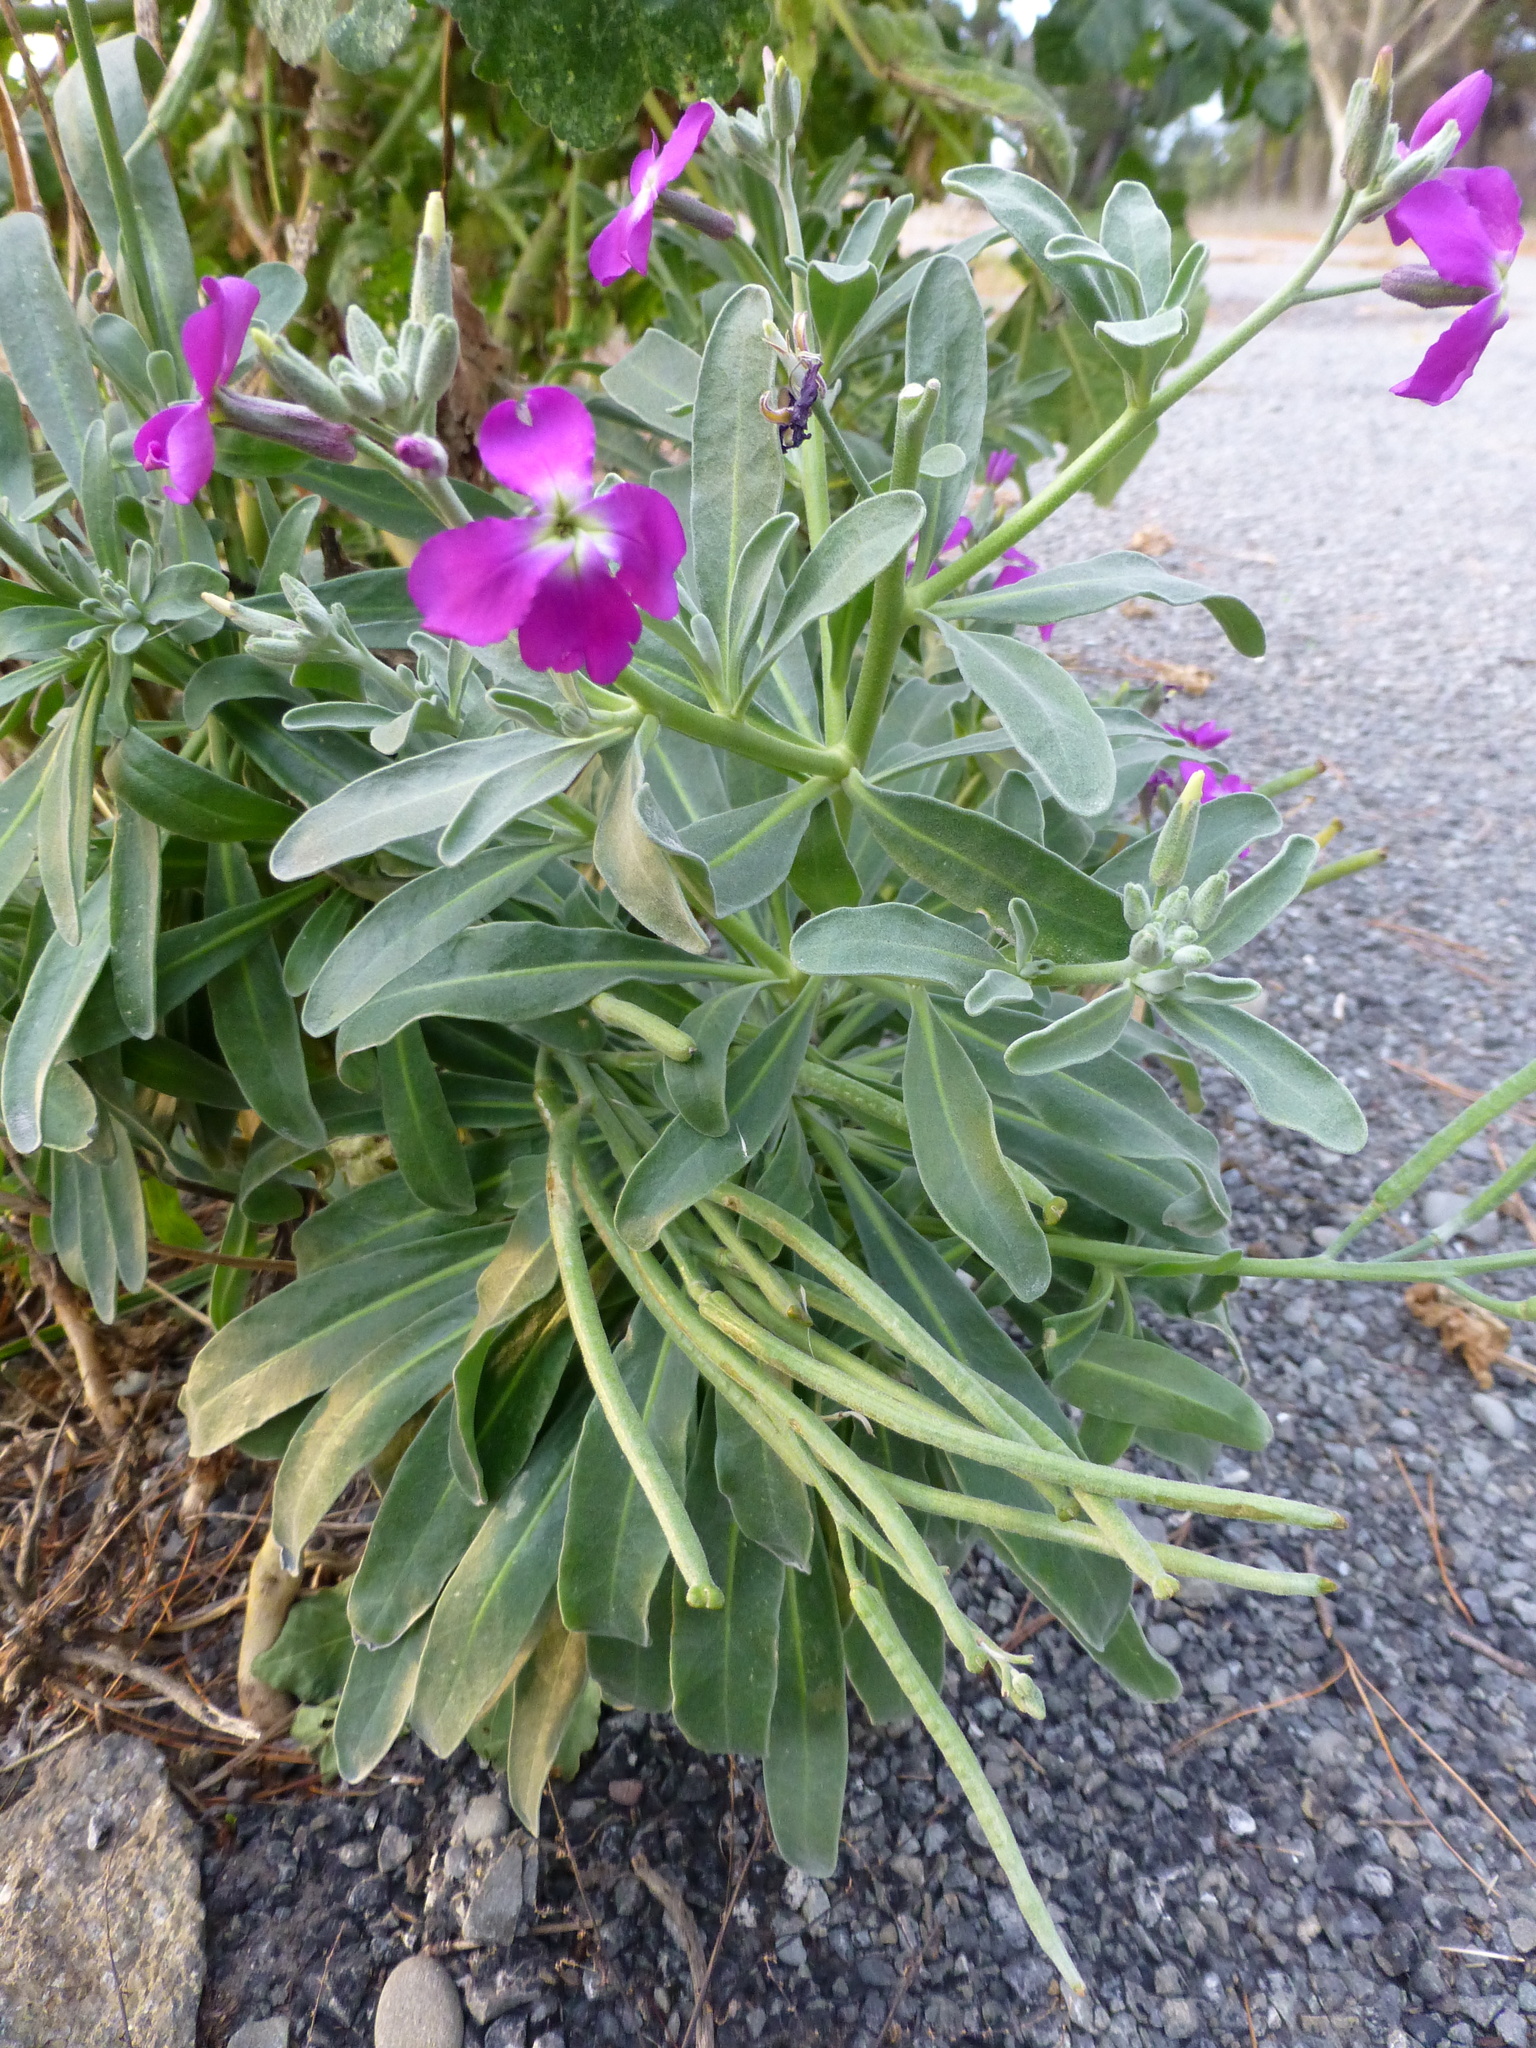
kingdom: Plantae
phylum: Tracheophyta
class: Magnoliopsida
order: Brassicales
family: Brassicaceae
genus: Matthiola
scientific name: Matthiola incana
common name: Hoary stock
